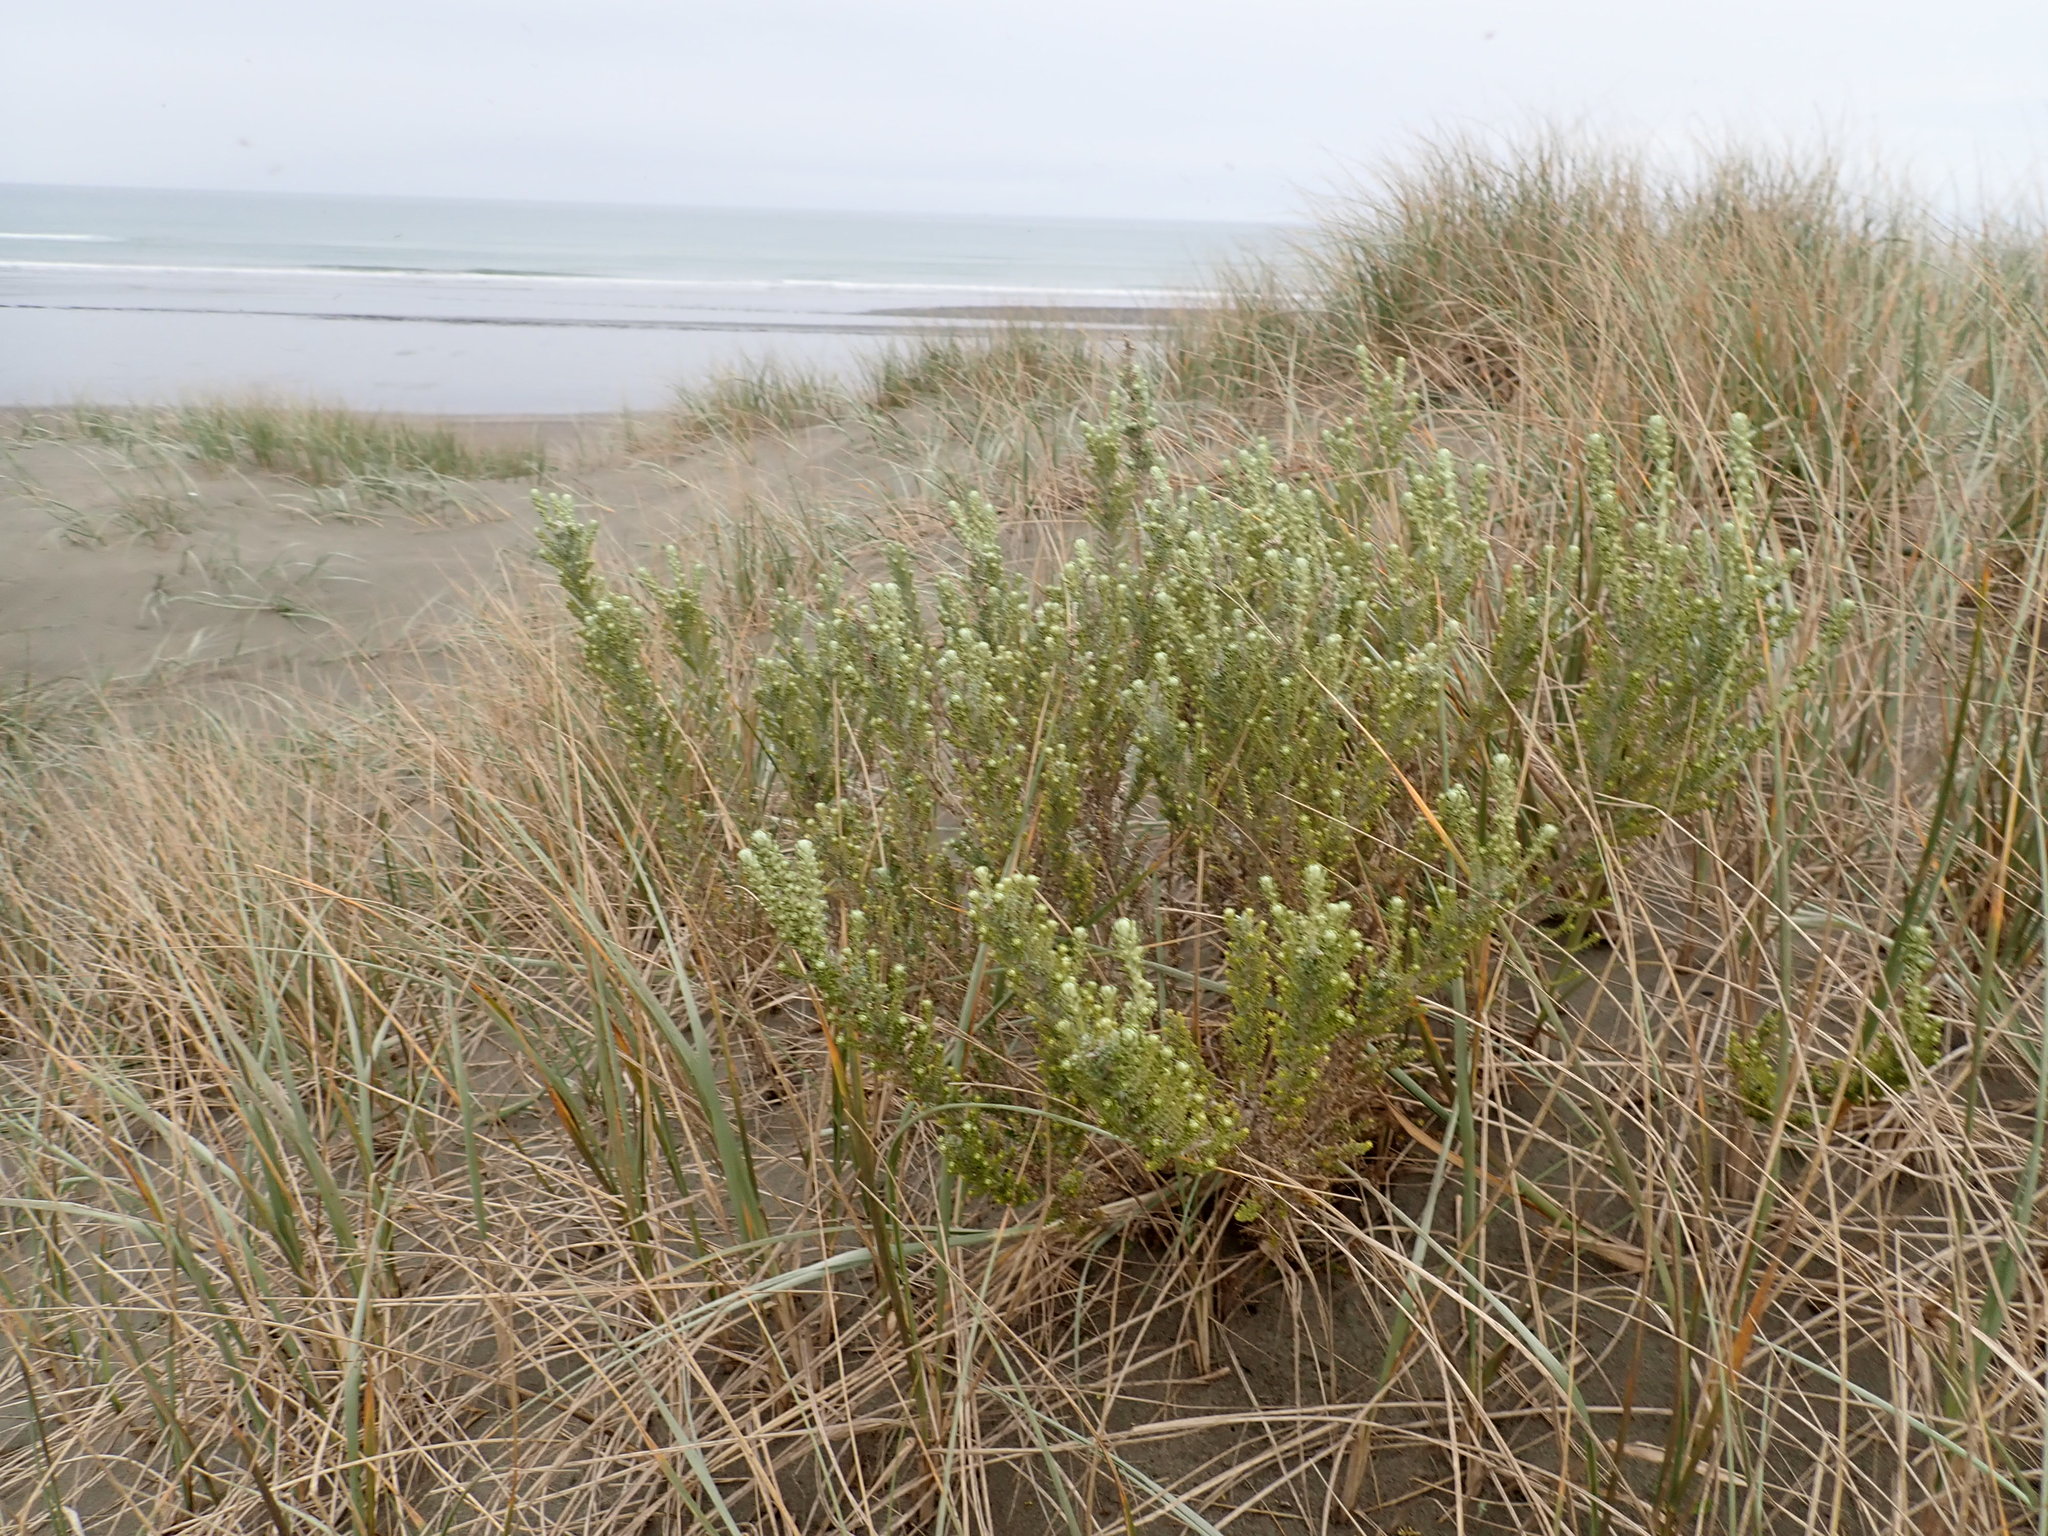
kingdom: Plantae
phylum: Tracheophyta
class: Magnoliopsida
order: Asterales
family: Asteraceae
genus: Ozothamnus
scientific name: Ozothamnus leptophyllus
